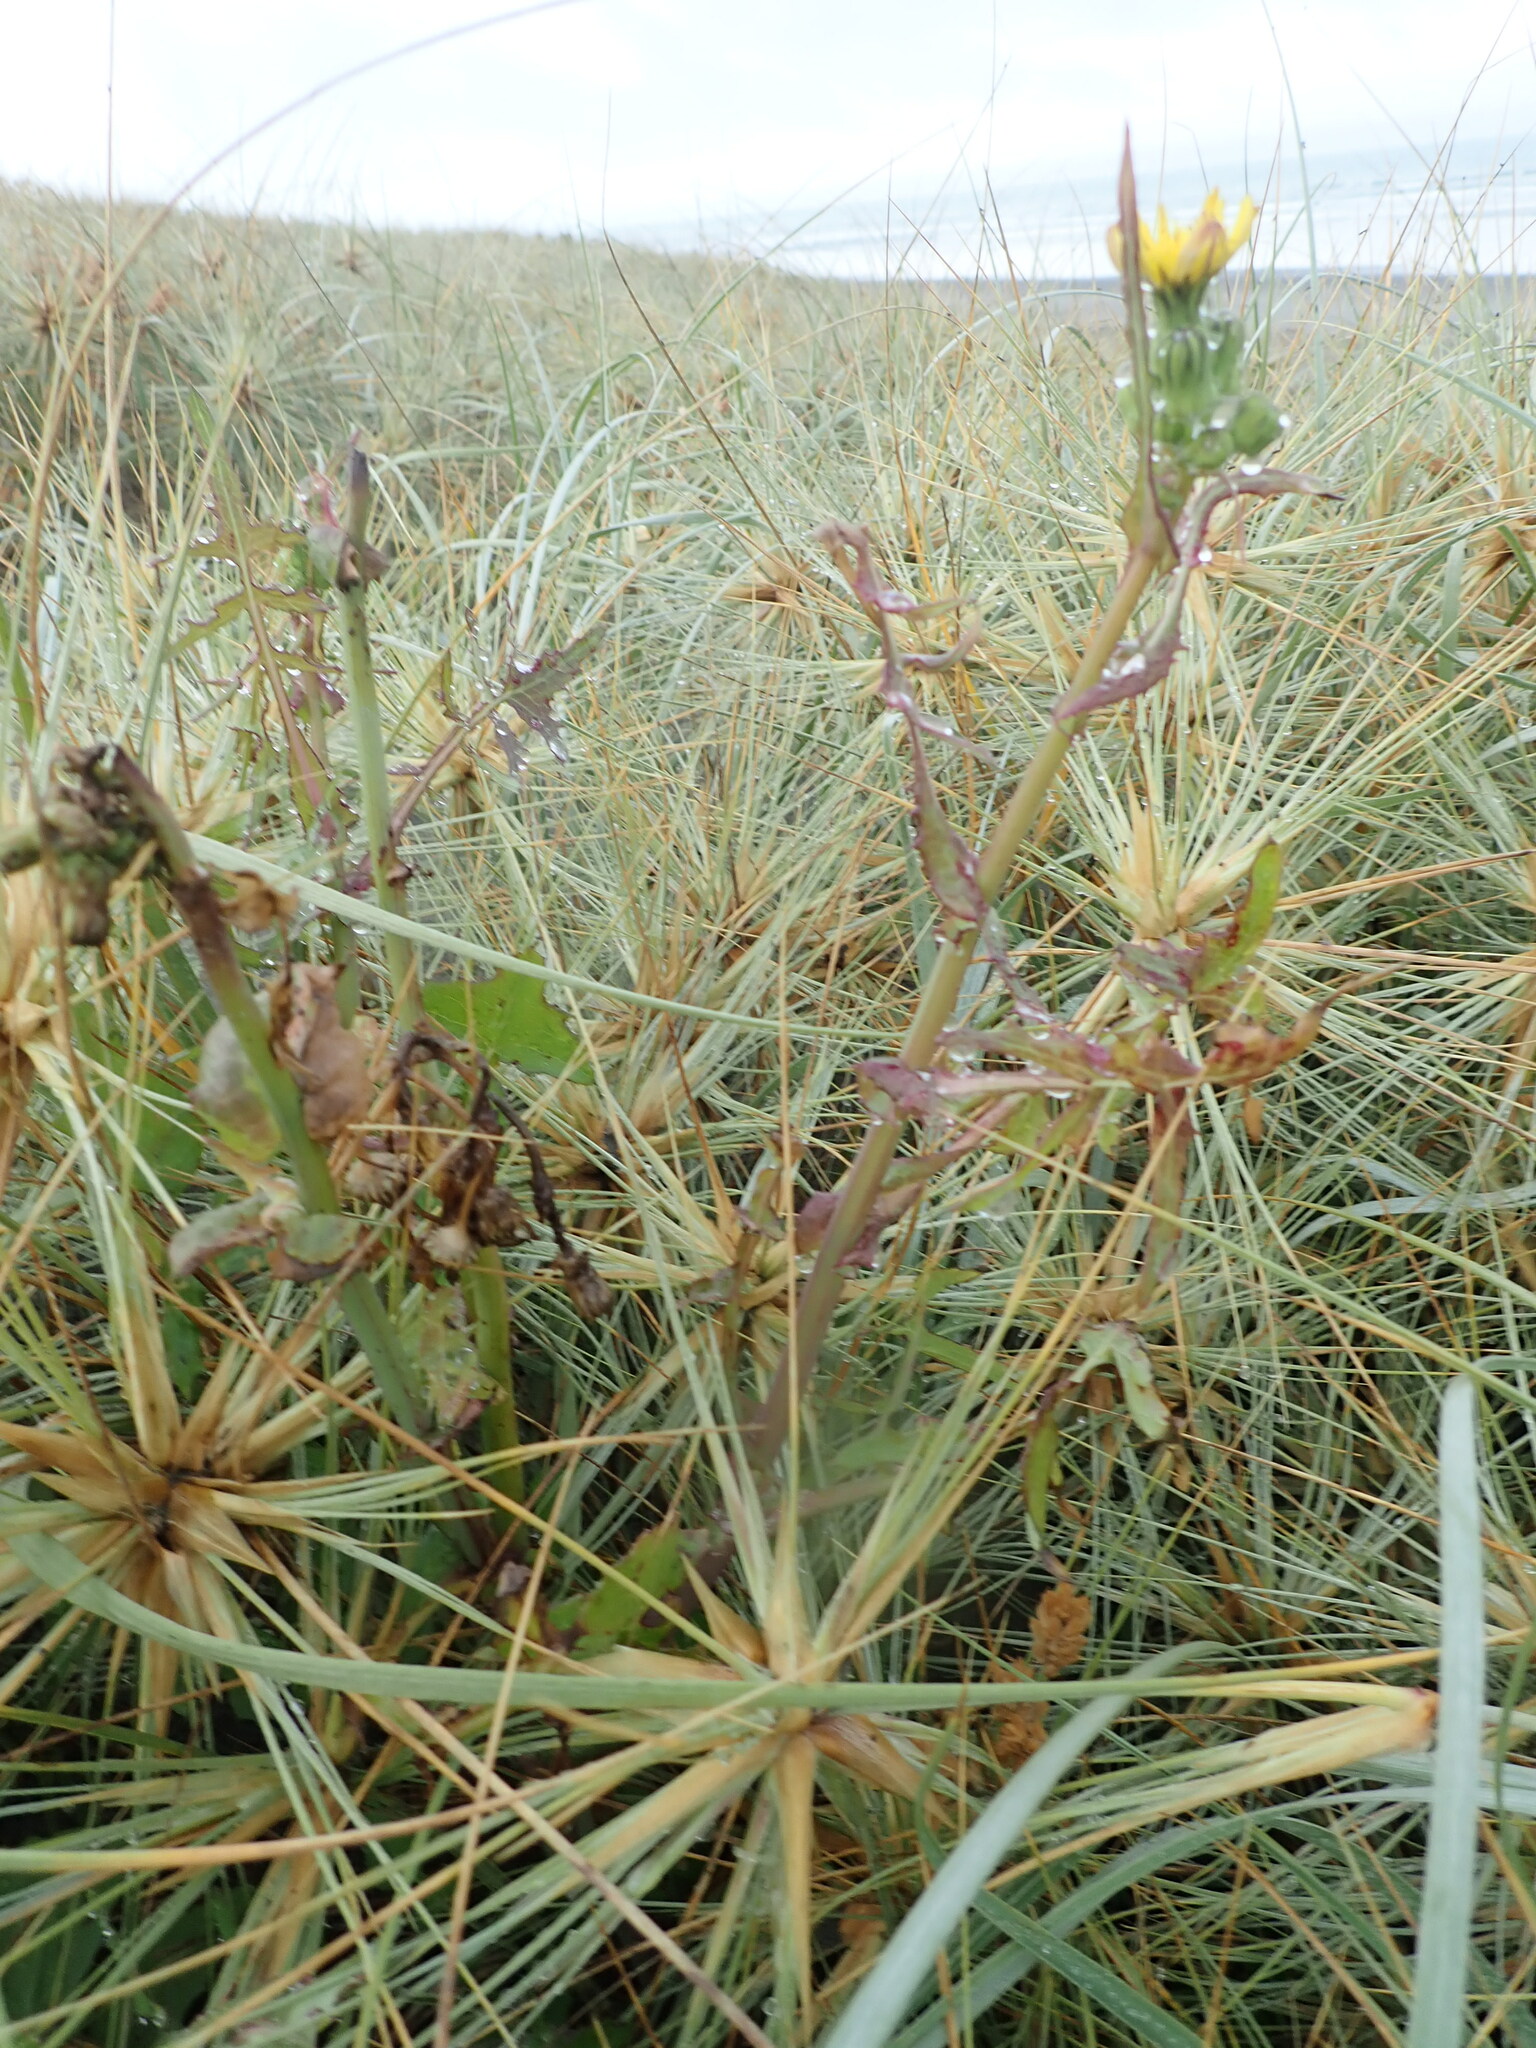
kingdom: Plantae
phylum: Tracheophyta
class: Magnoliopsida
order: Asterales
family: Asteraceae
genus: Sonchus
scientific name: Sonchus oleraceus
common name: Common sowthistle
